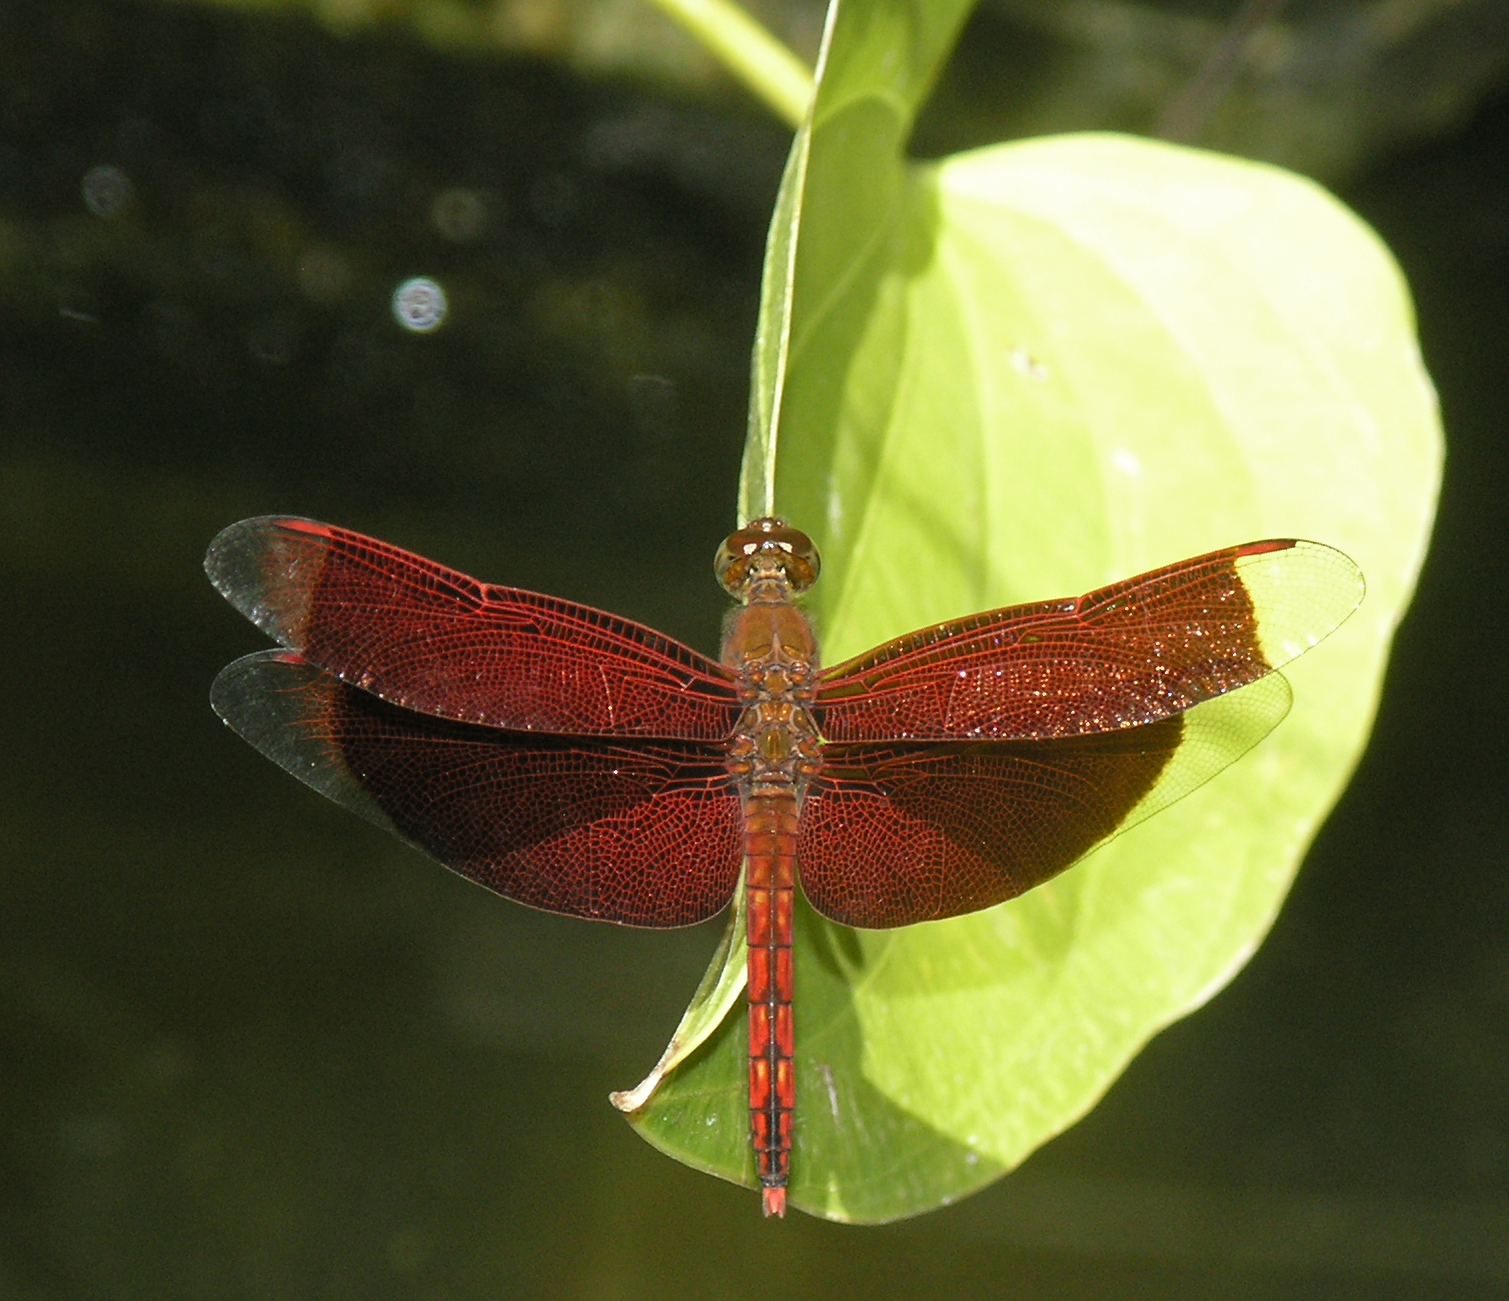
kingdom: Animalia
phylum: Arthropoda
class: Insecta
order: Odonata
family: Libellulidae
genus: Neurothemis
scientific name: Neurothemis ramburii
